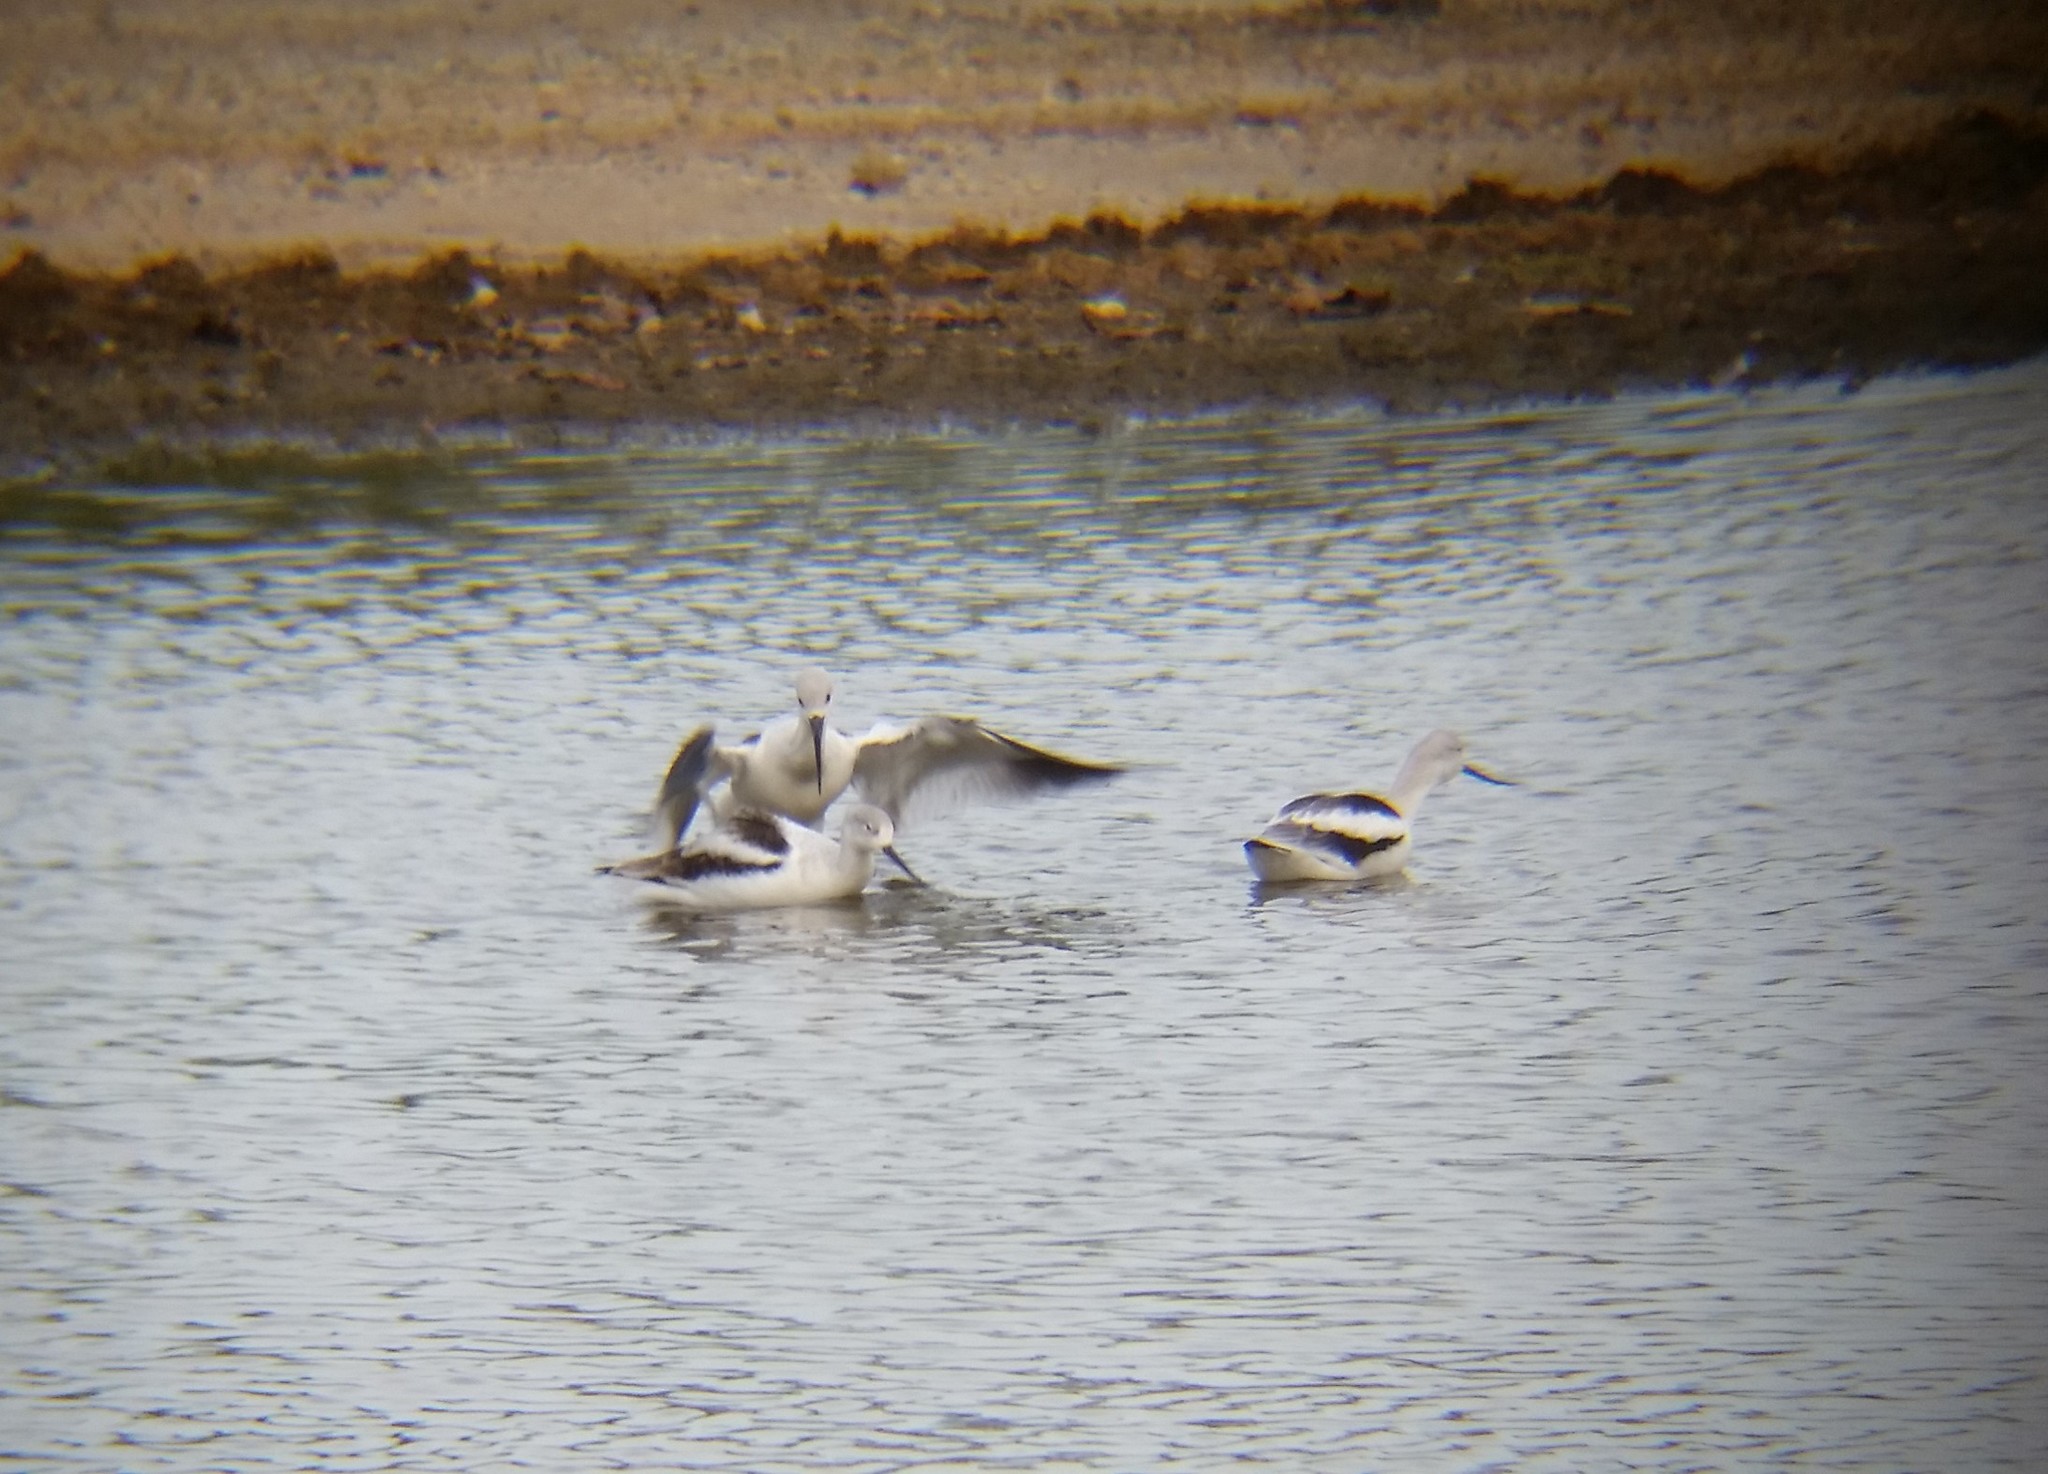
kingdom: Animalia
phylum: Chordata
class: Aves
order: Charadriiformes
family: Recurvirostridae
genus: Recurvirostra
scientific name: Recurvirostra americana
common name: American avocet
